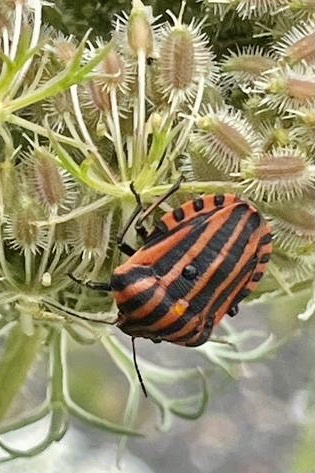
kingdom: Animalia
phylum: Arthropoda
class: Insecta
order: Hemiptera
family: Pentatomidae
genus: Graphosoma
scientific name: Graphosoma italicum
